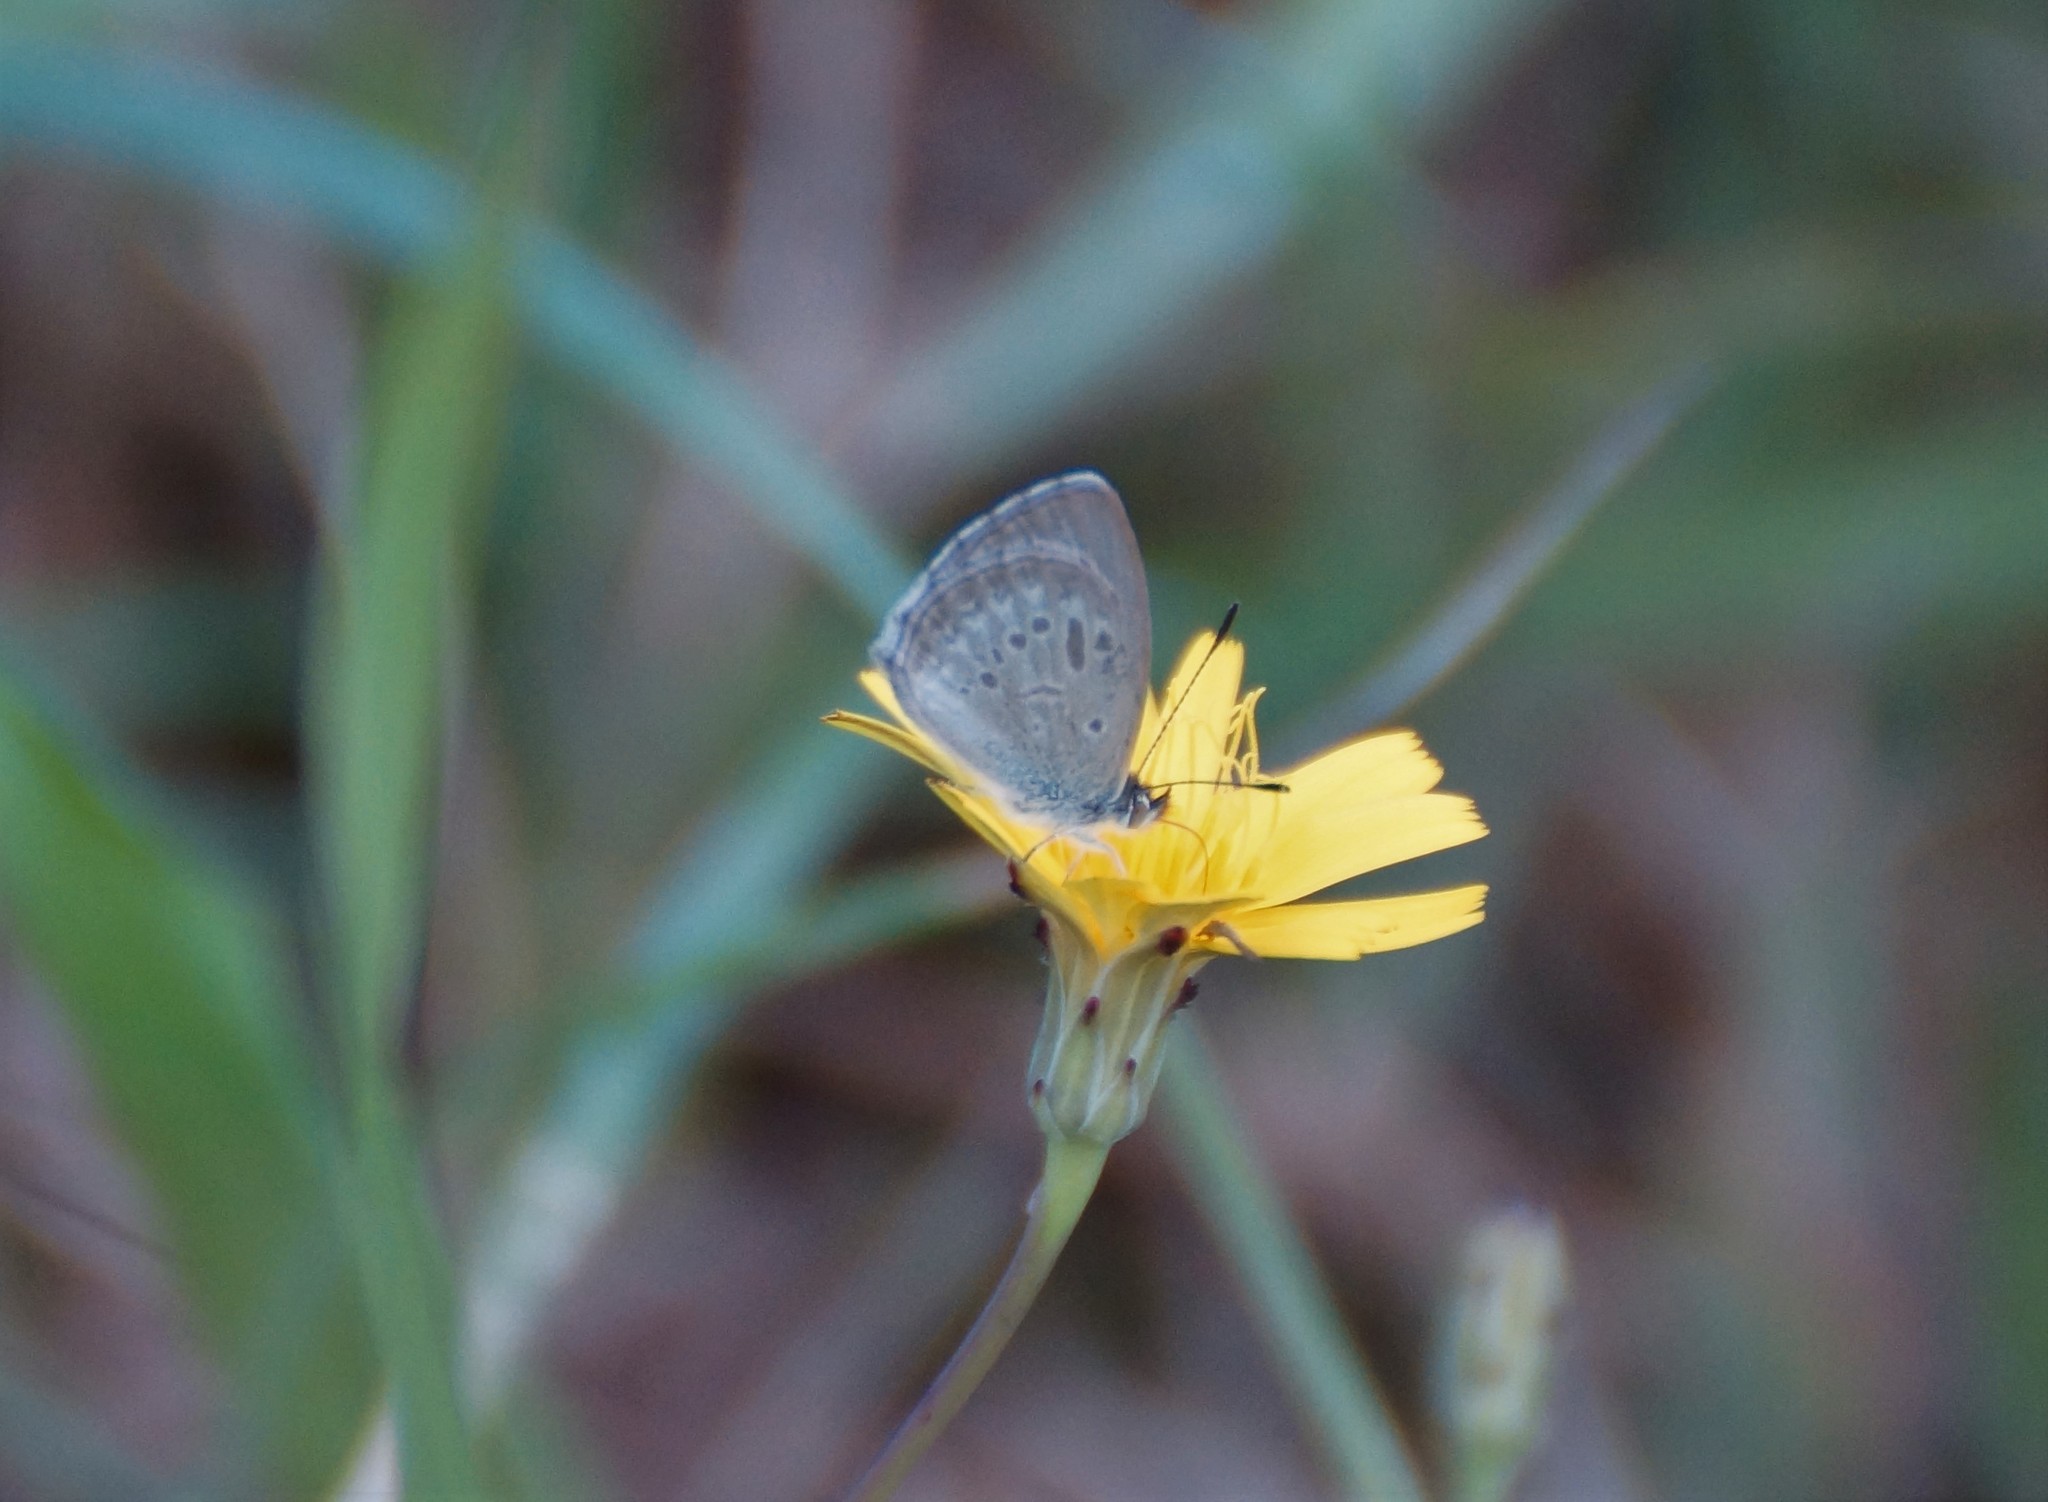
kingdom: Animalia
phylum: Arthropoda
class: Insecta
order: Lepidoptera
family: Lycaenidae
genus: Zizina
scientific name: Zizina labradus
